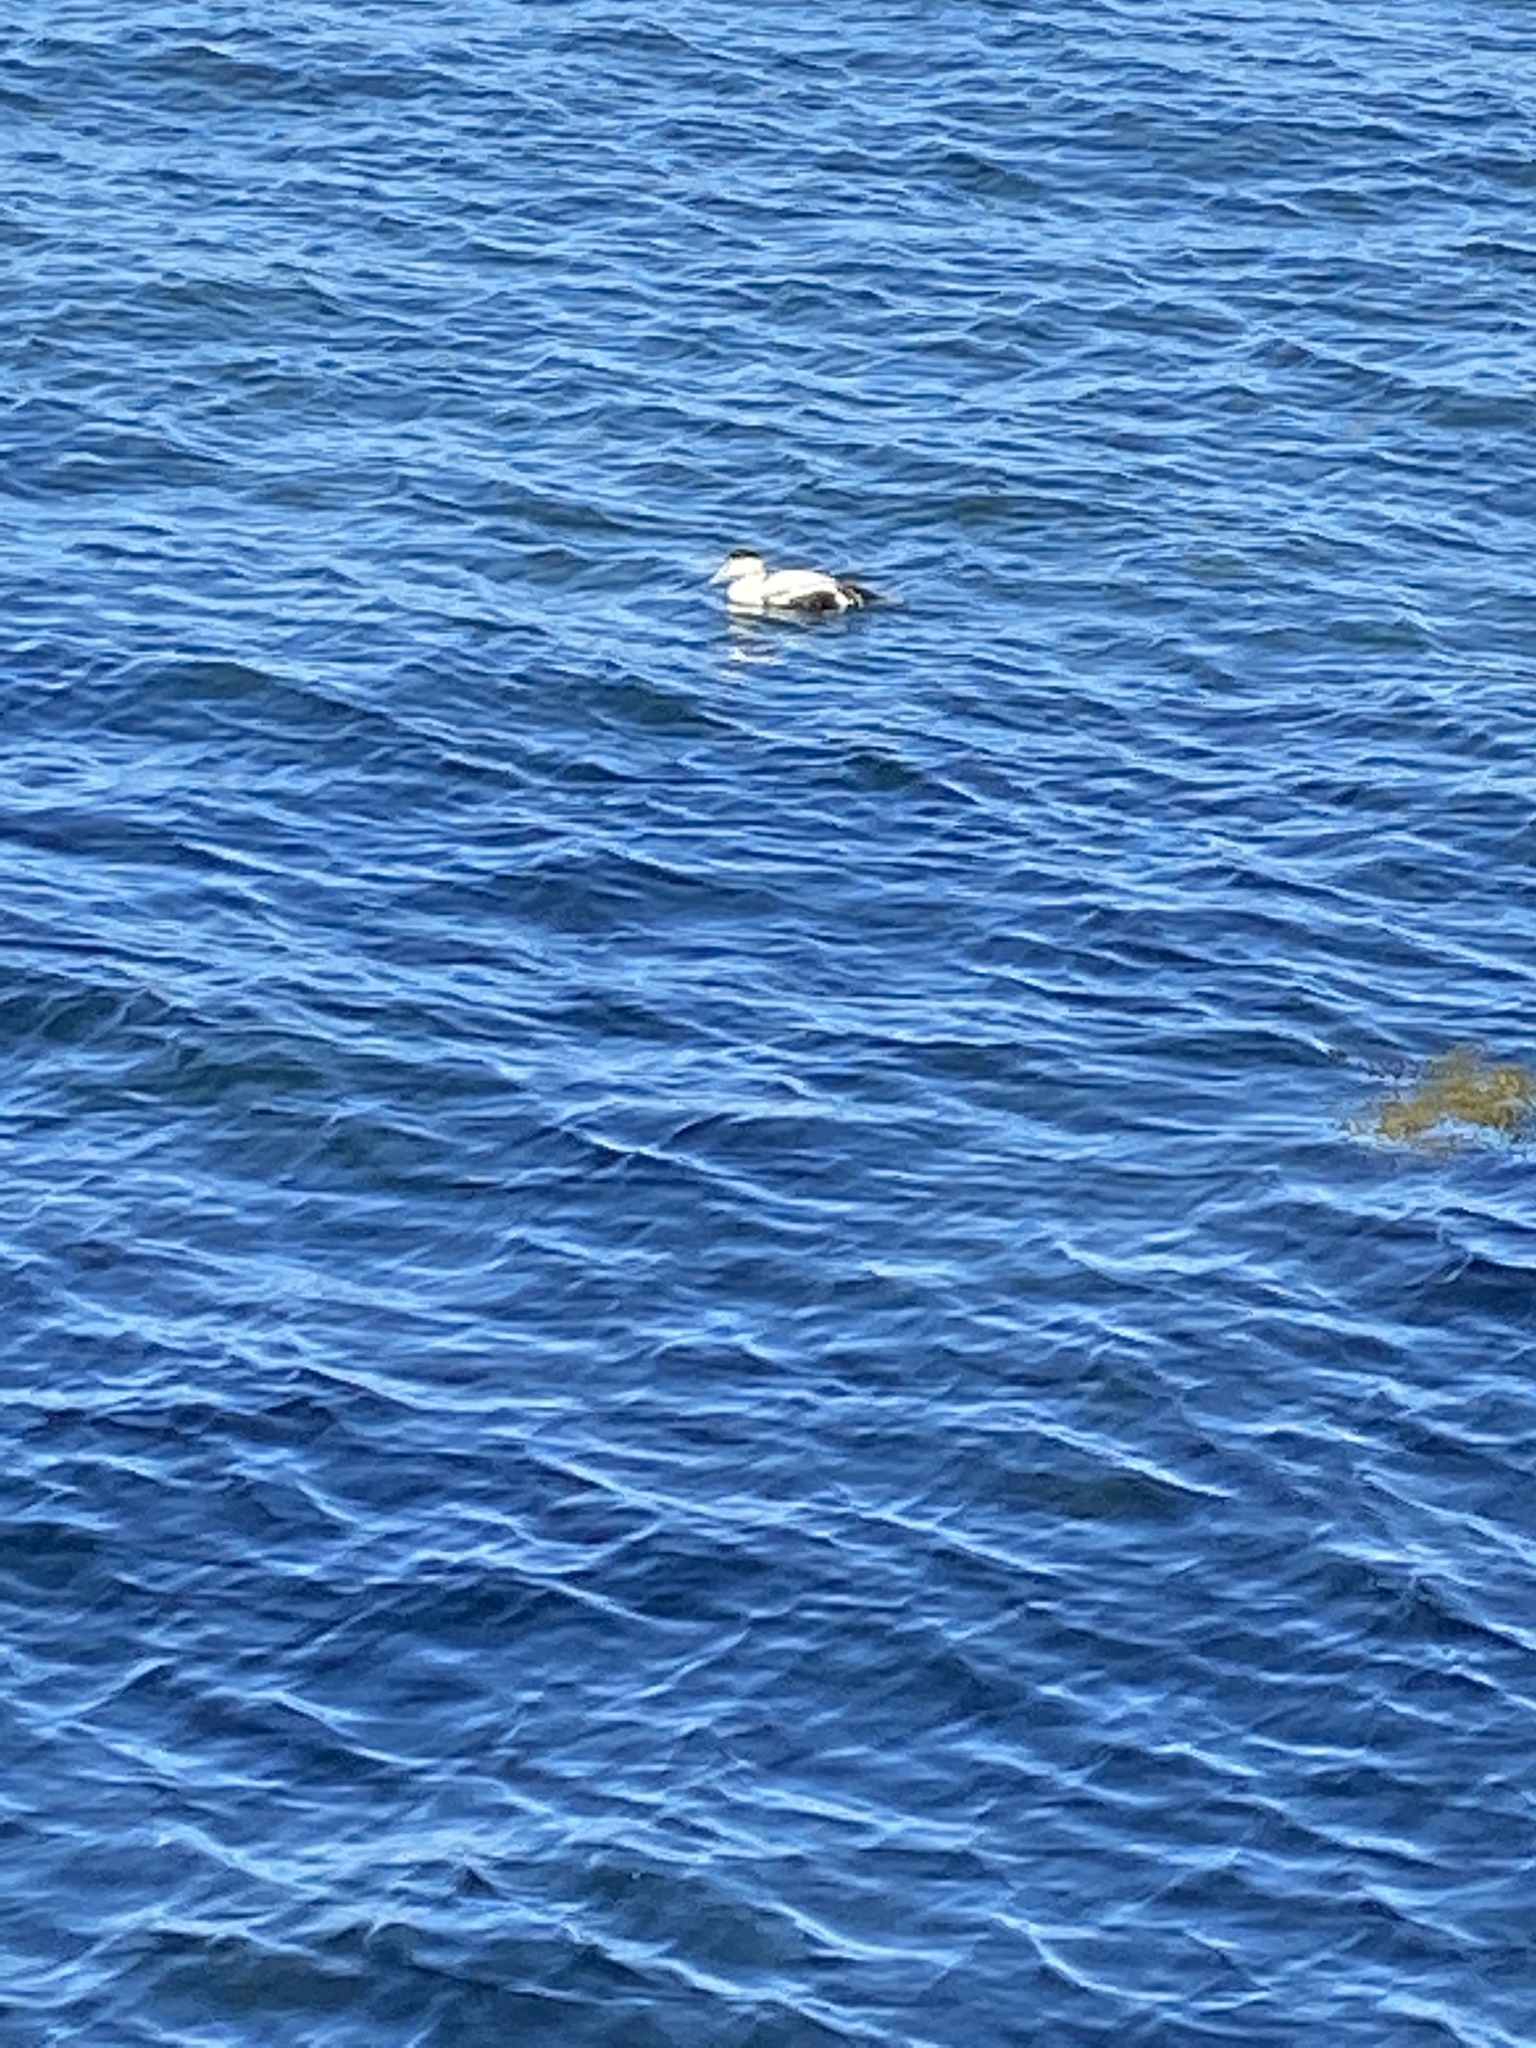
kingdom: Animalia
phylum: Chordata
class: Aves
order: Anseriformes
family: Anatidae
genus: Somateria
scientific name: Somateria mollissima
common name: Common eider
